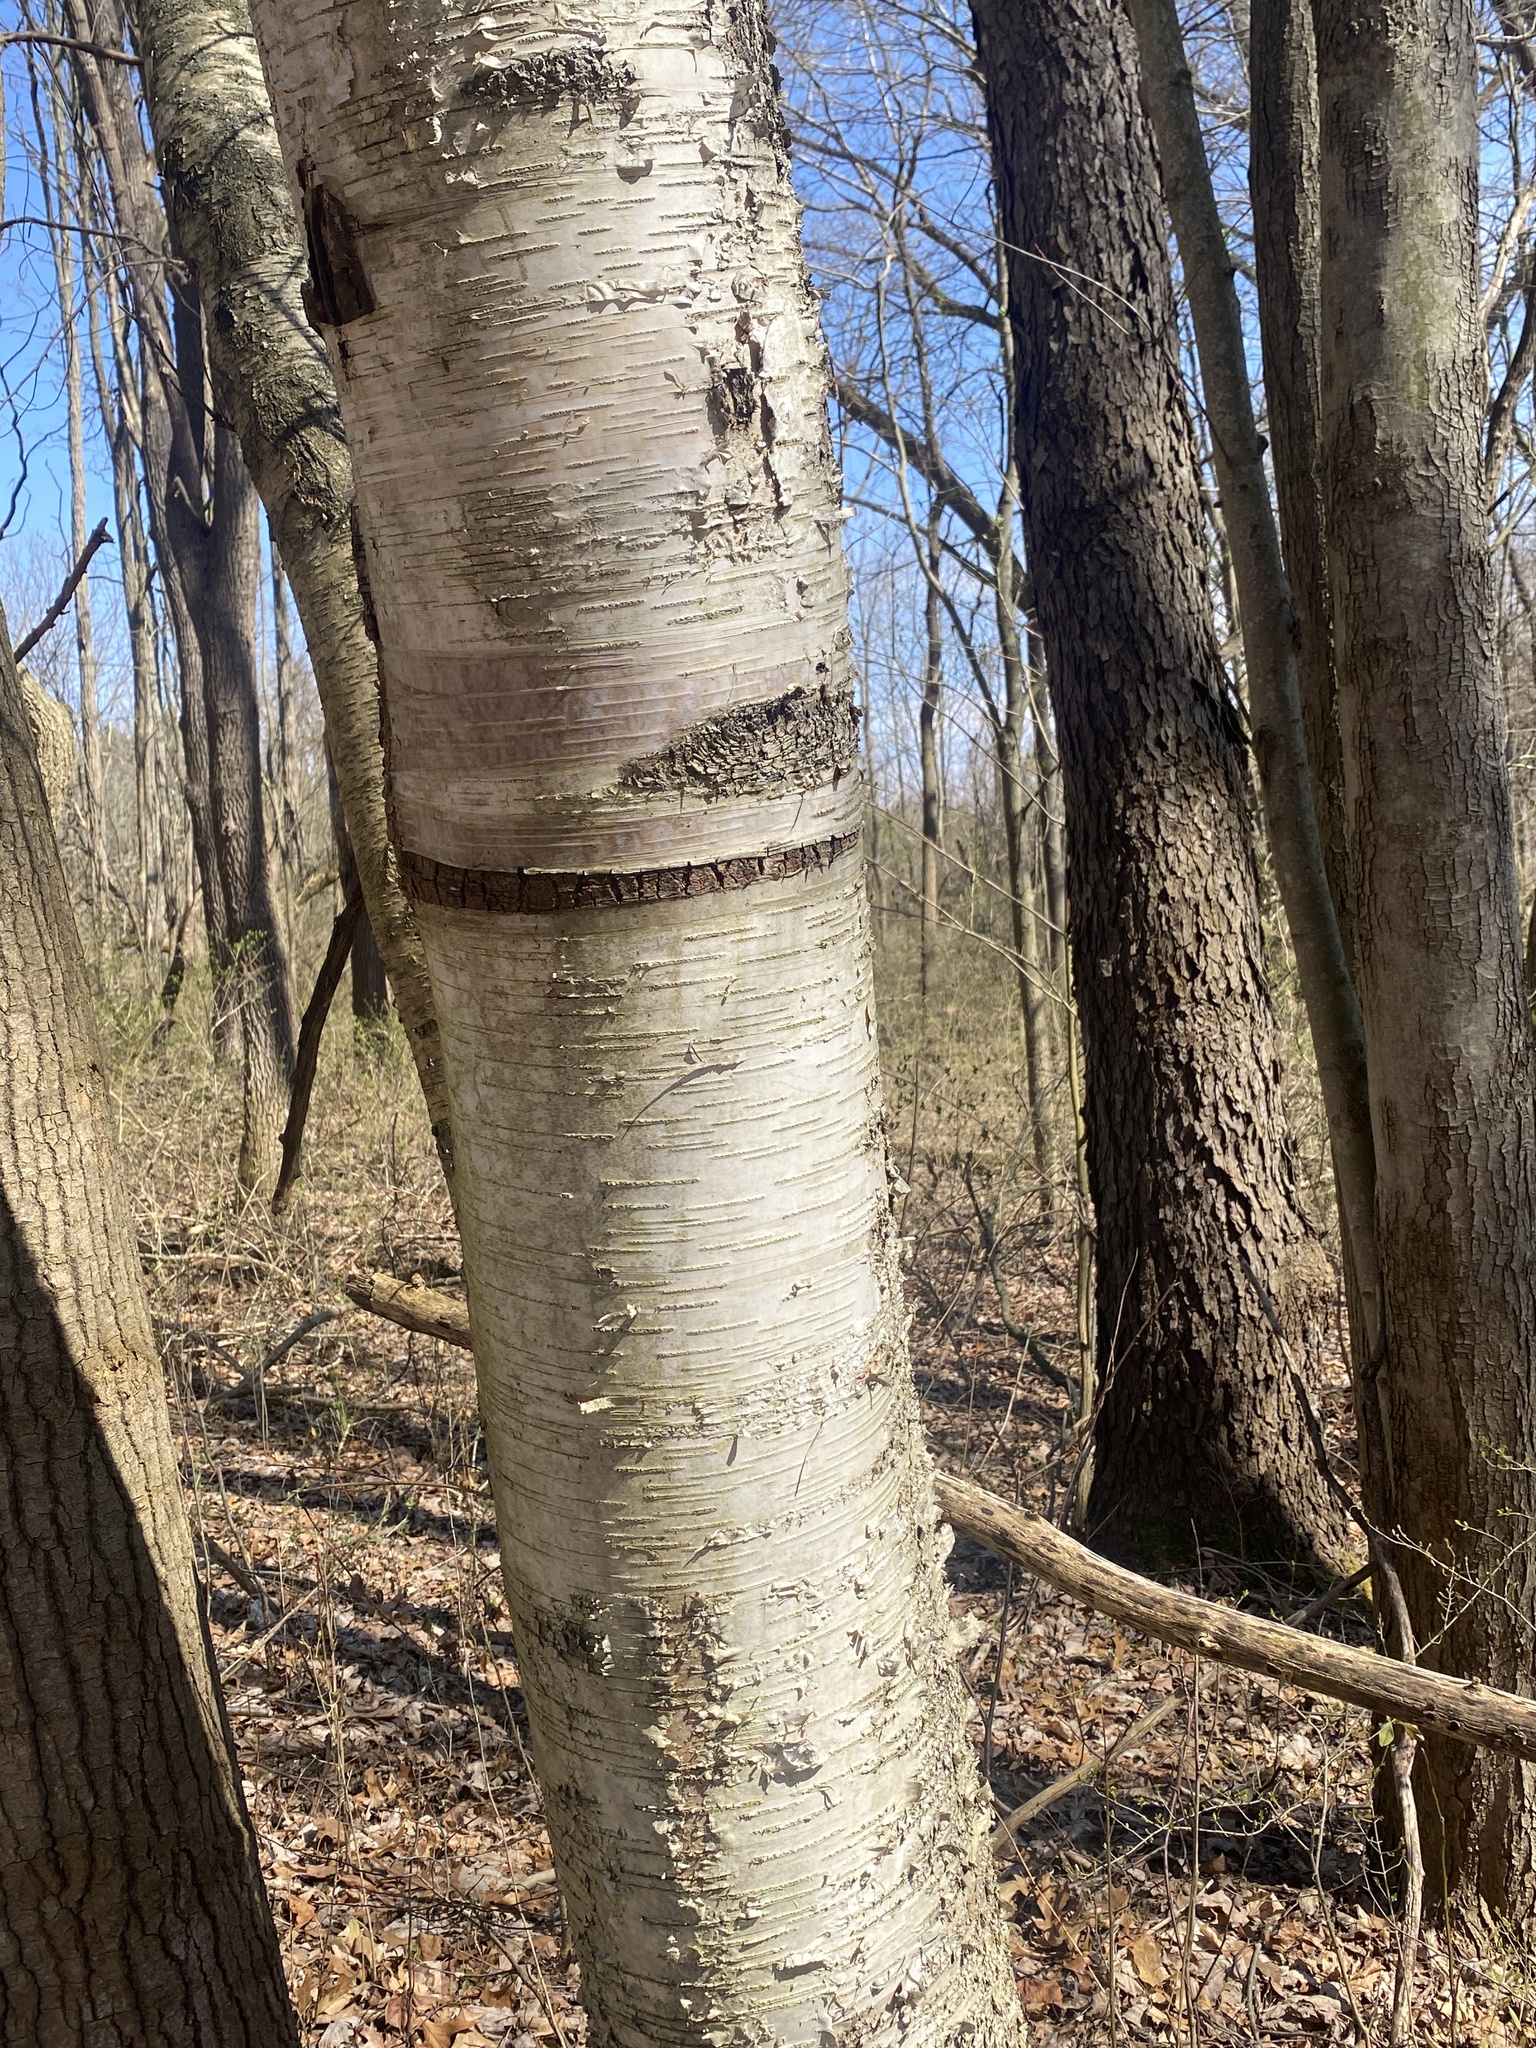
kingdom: Plantae
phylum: Tracheophyta
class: Magnoliopsida
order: Fagales
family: Betulaceae
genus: Betula
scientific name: Betula papyrifera
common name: Paper birch
